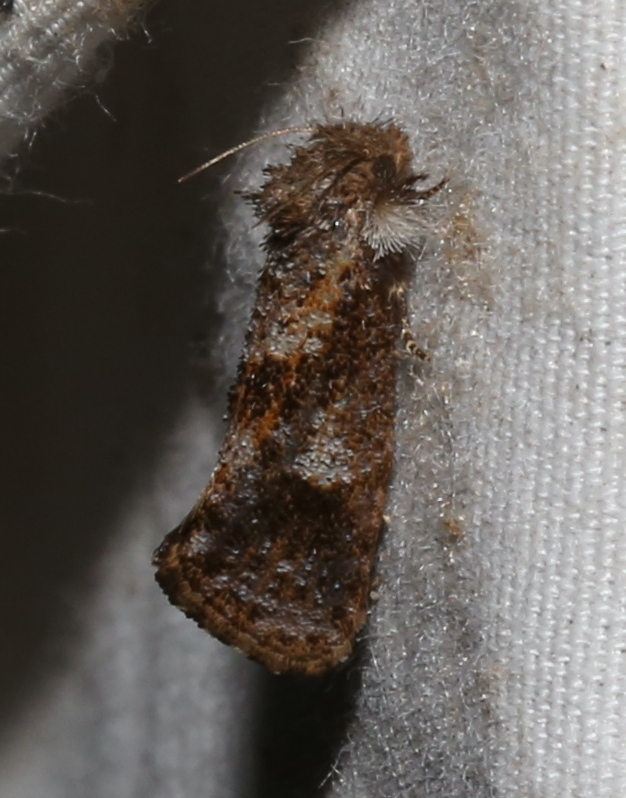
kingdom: Animalia
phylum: Arthropoda
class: Insecta
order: Lepidoptera
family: Tineidae
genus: Acrolophus
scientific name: Acrolophus panamae
